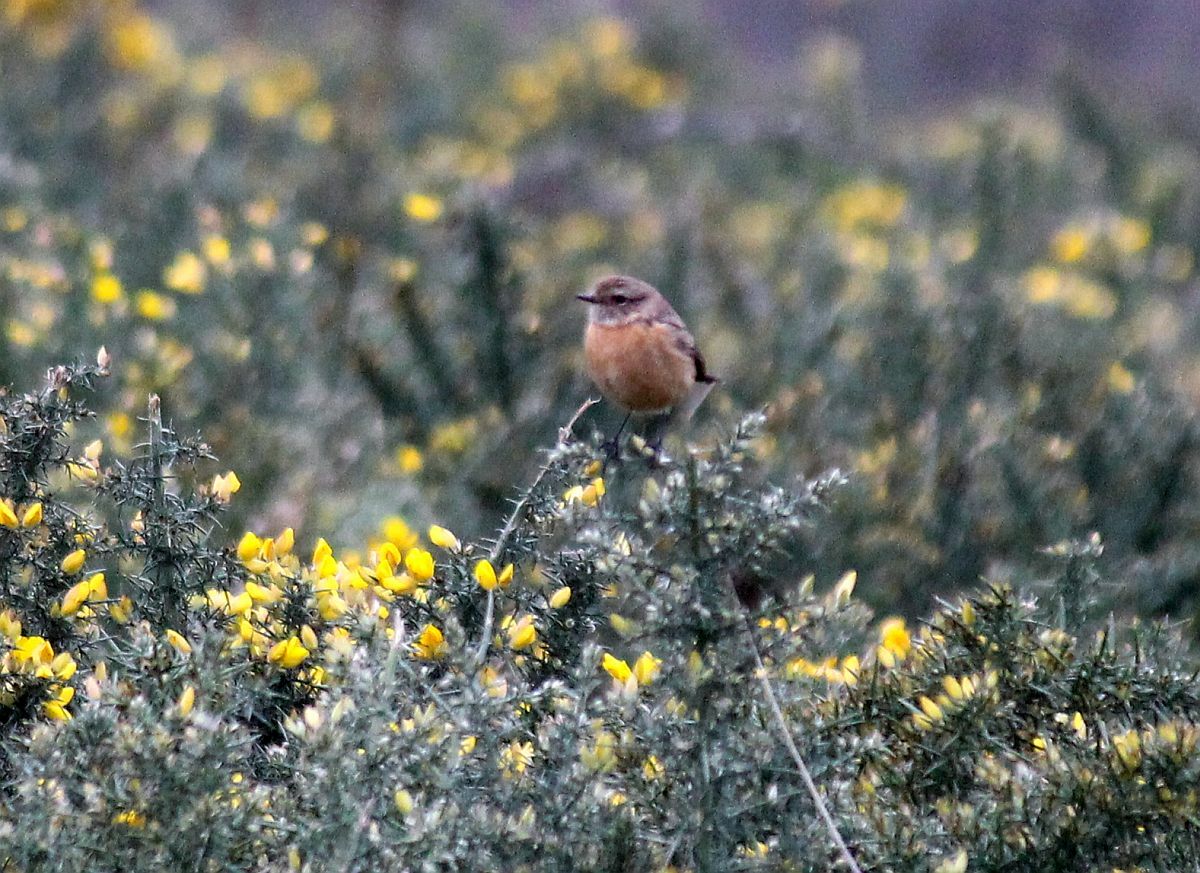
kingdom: Animalia
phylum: Chordata
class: Aves
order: Passeriformes
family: Muscicapidae
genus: Saxicola
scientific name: Saxicola rubicola
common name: European stonechat
